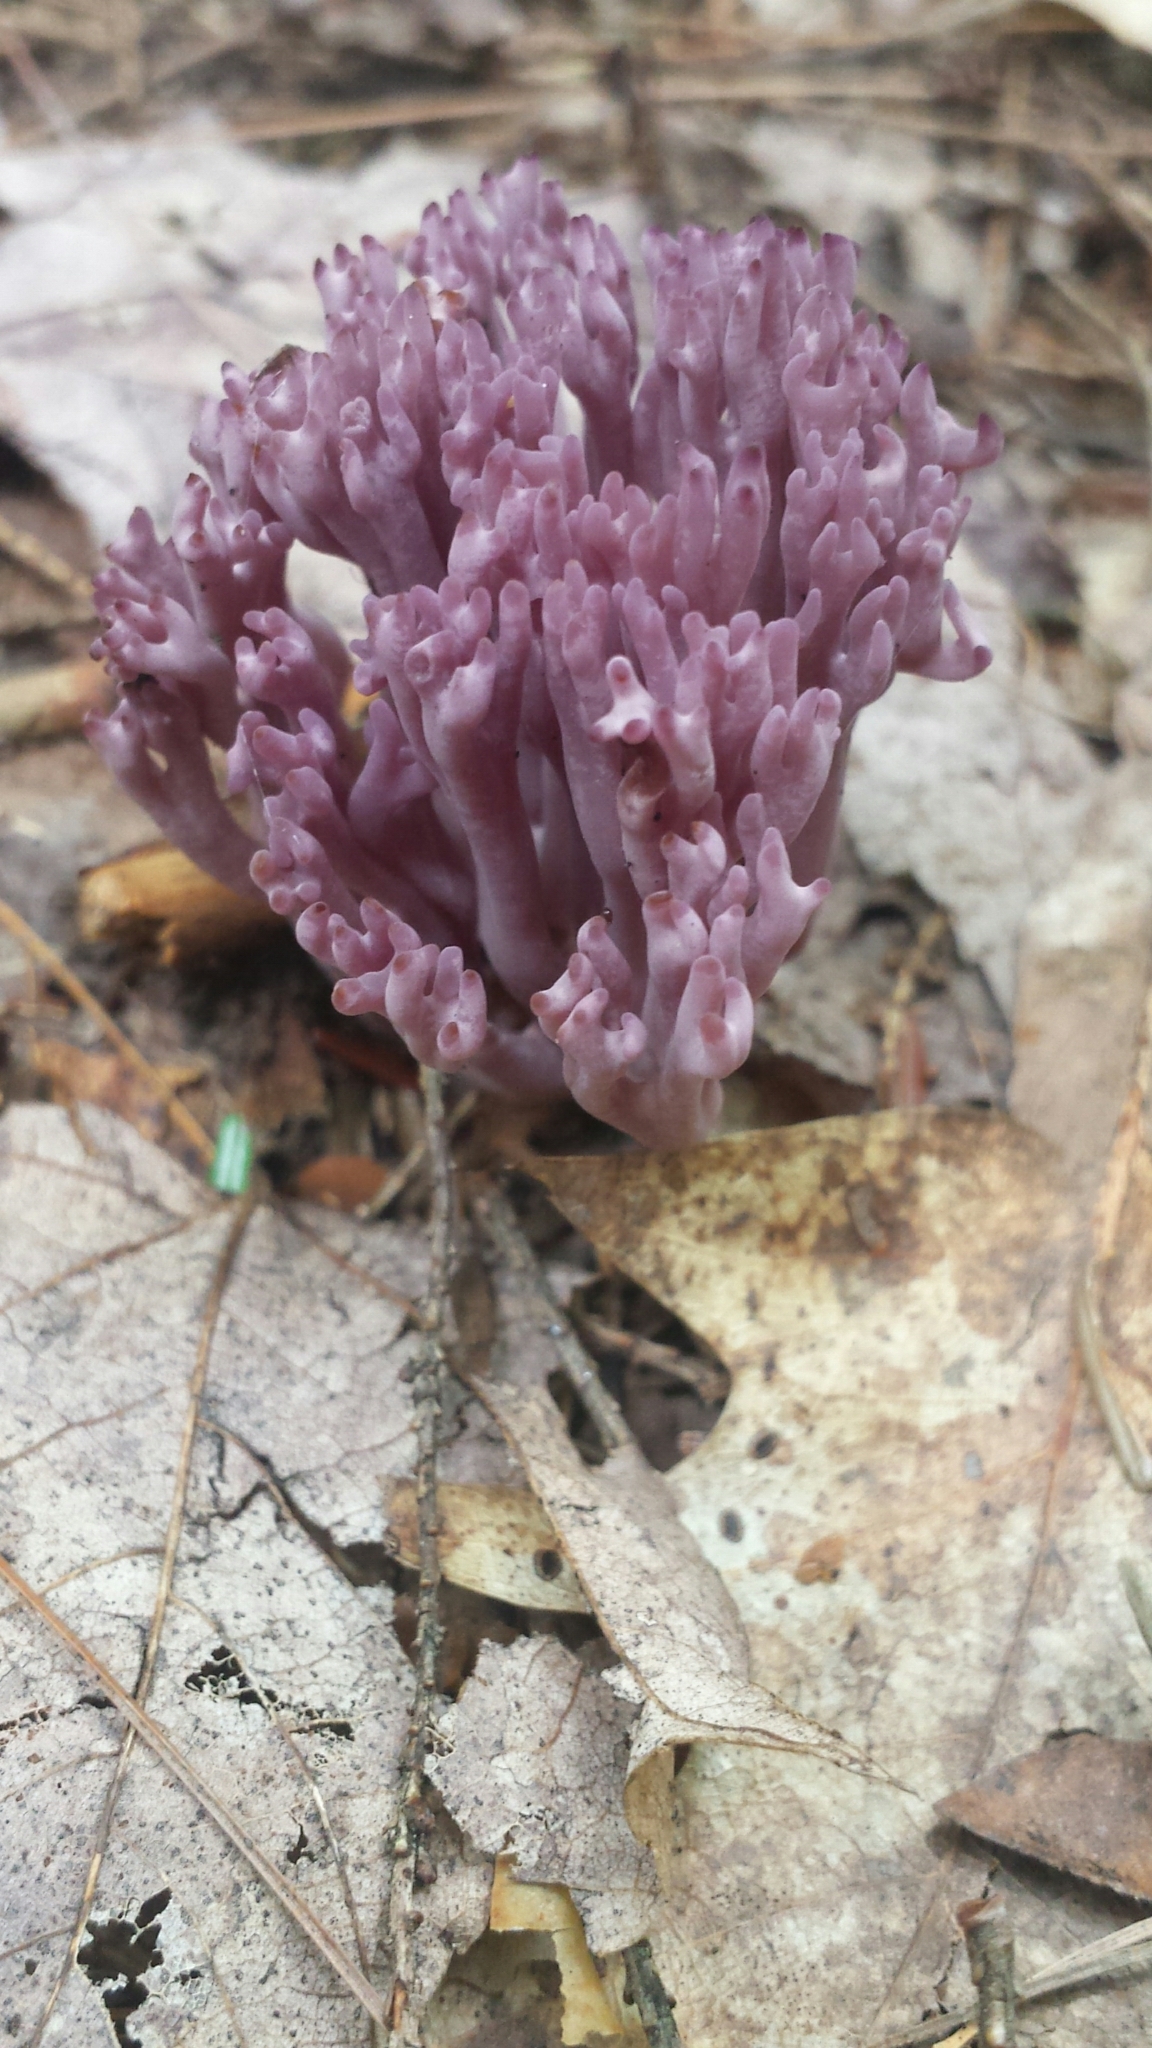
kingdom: Fungi
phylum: Basidiomycota
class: Agaricomycetes
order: Agaricales
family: Clavariaceae
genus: Clavaria
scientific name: Clavaria zollingeri
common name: Violet coral
